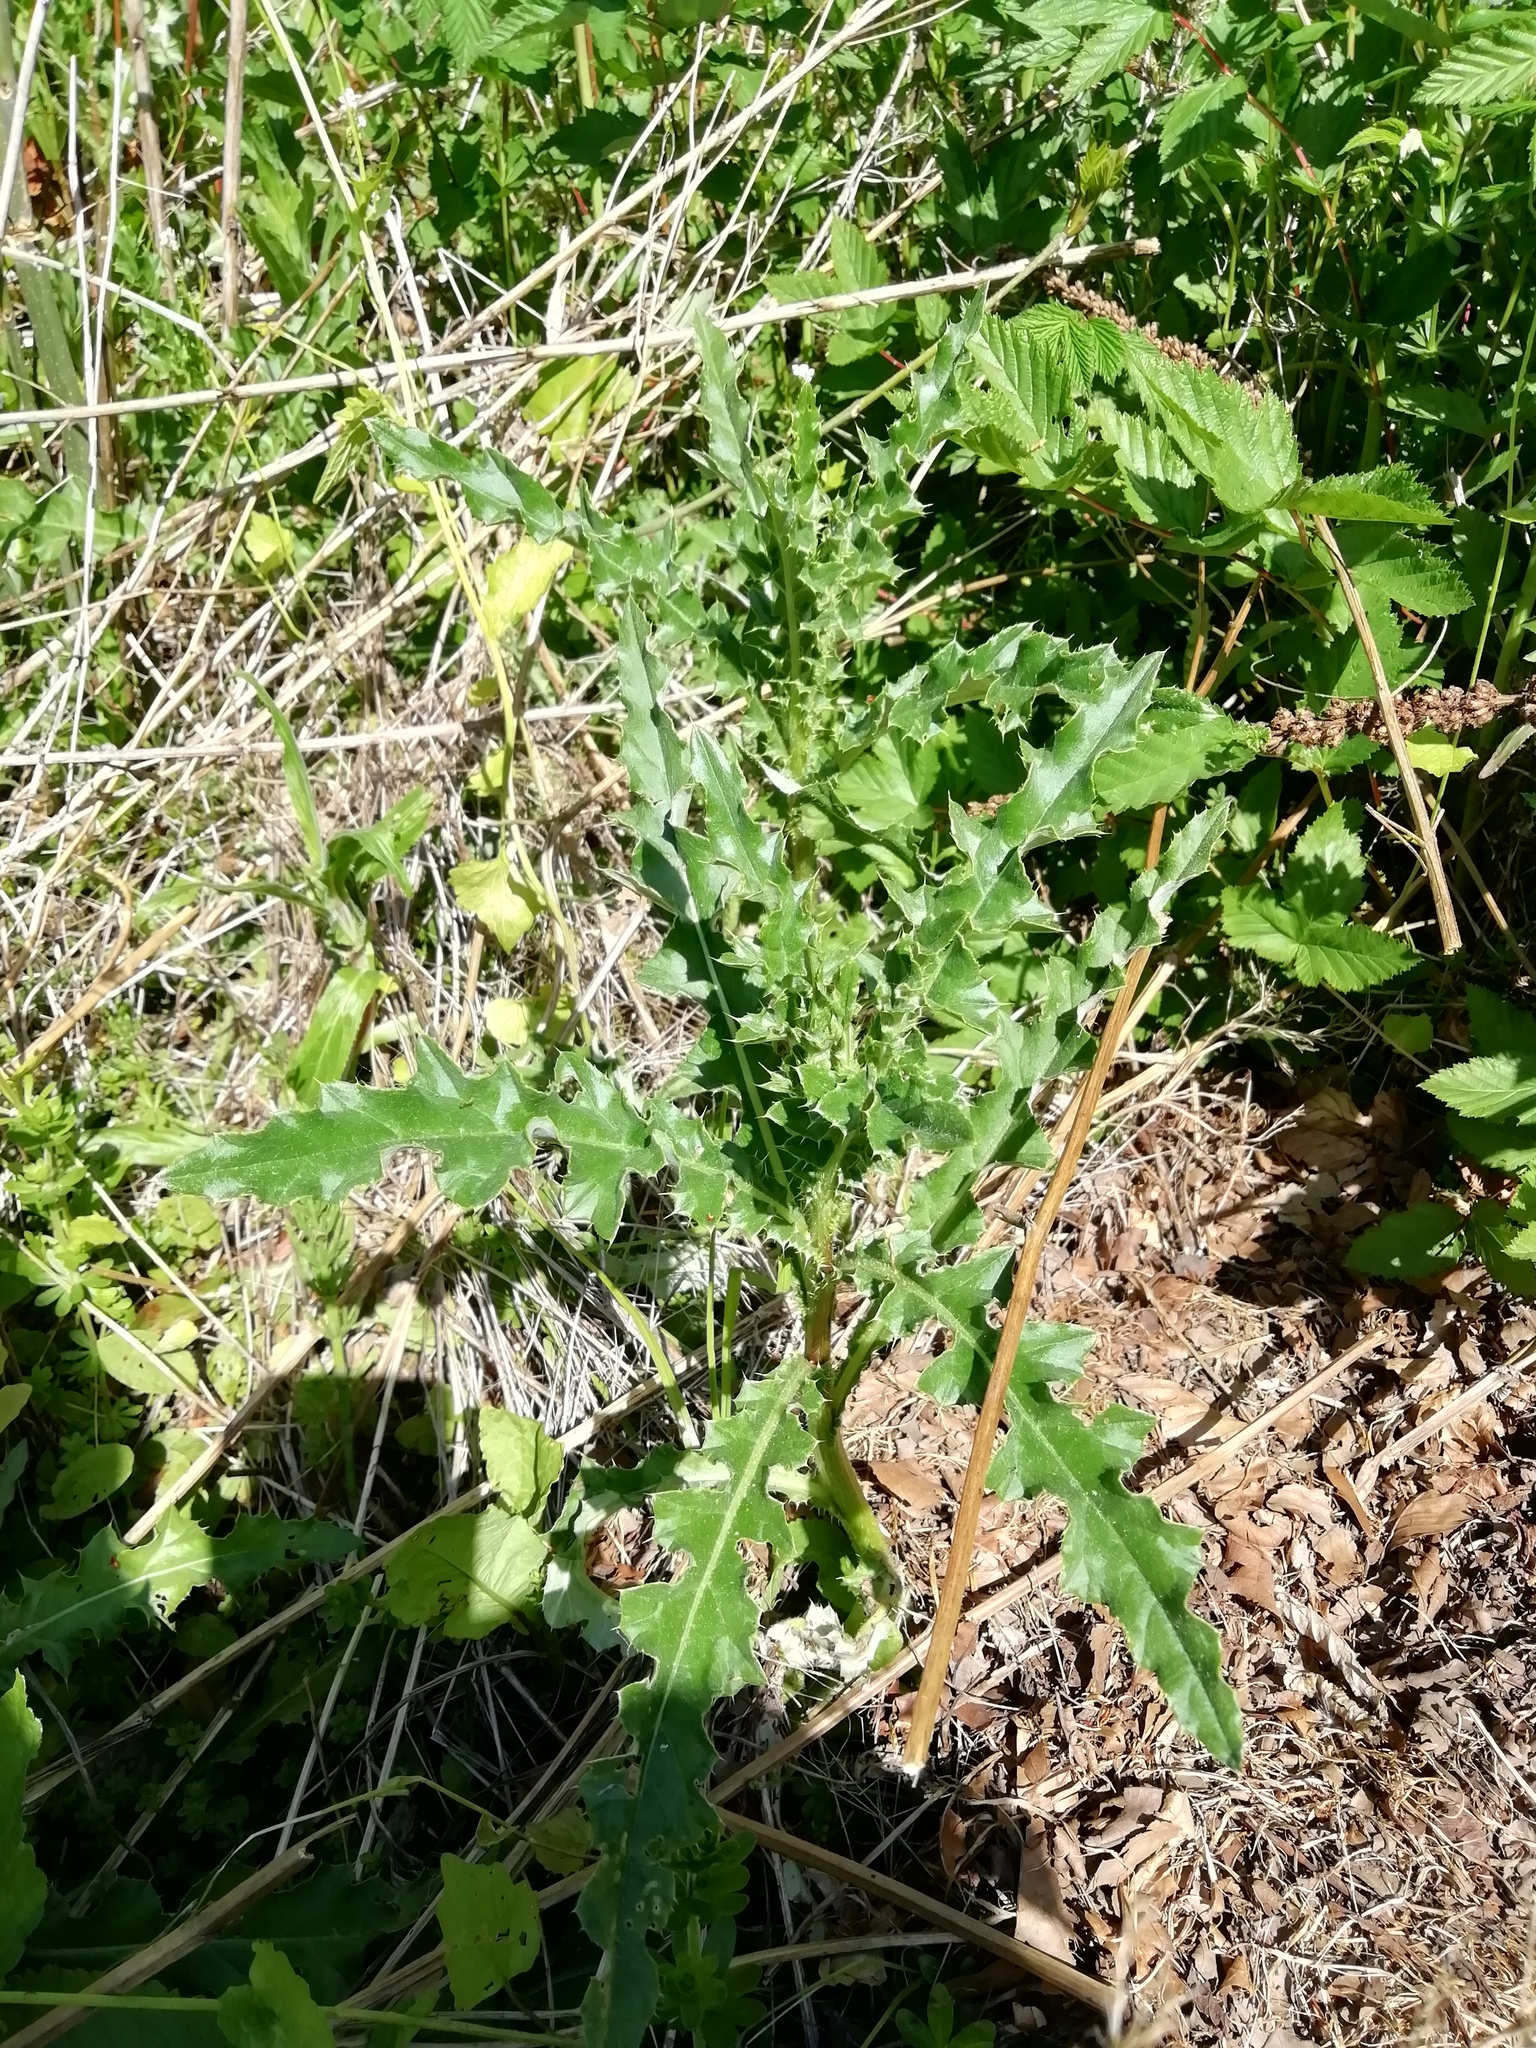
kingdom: Plantae
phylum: Tracheophyta
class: Magnoliopsida
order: Asterales
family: Asteraceae
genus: Cirsium
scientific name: Cirsium arvense
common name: Creeping thistle
